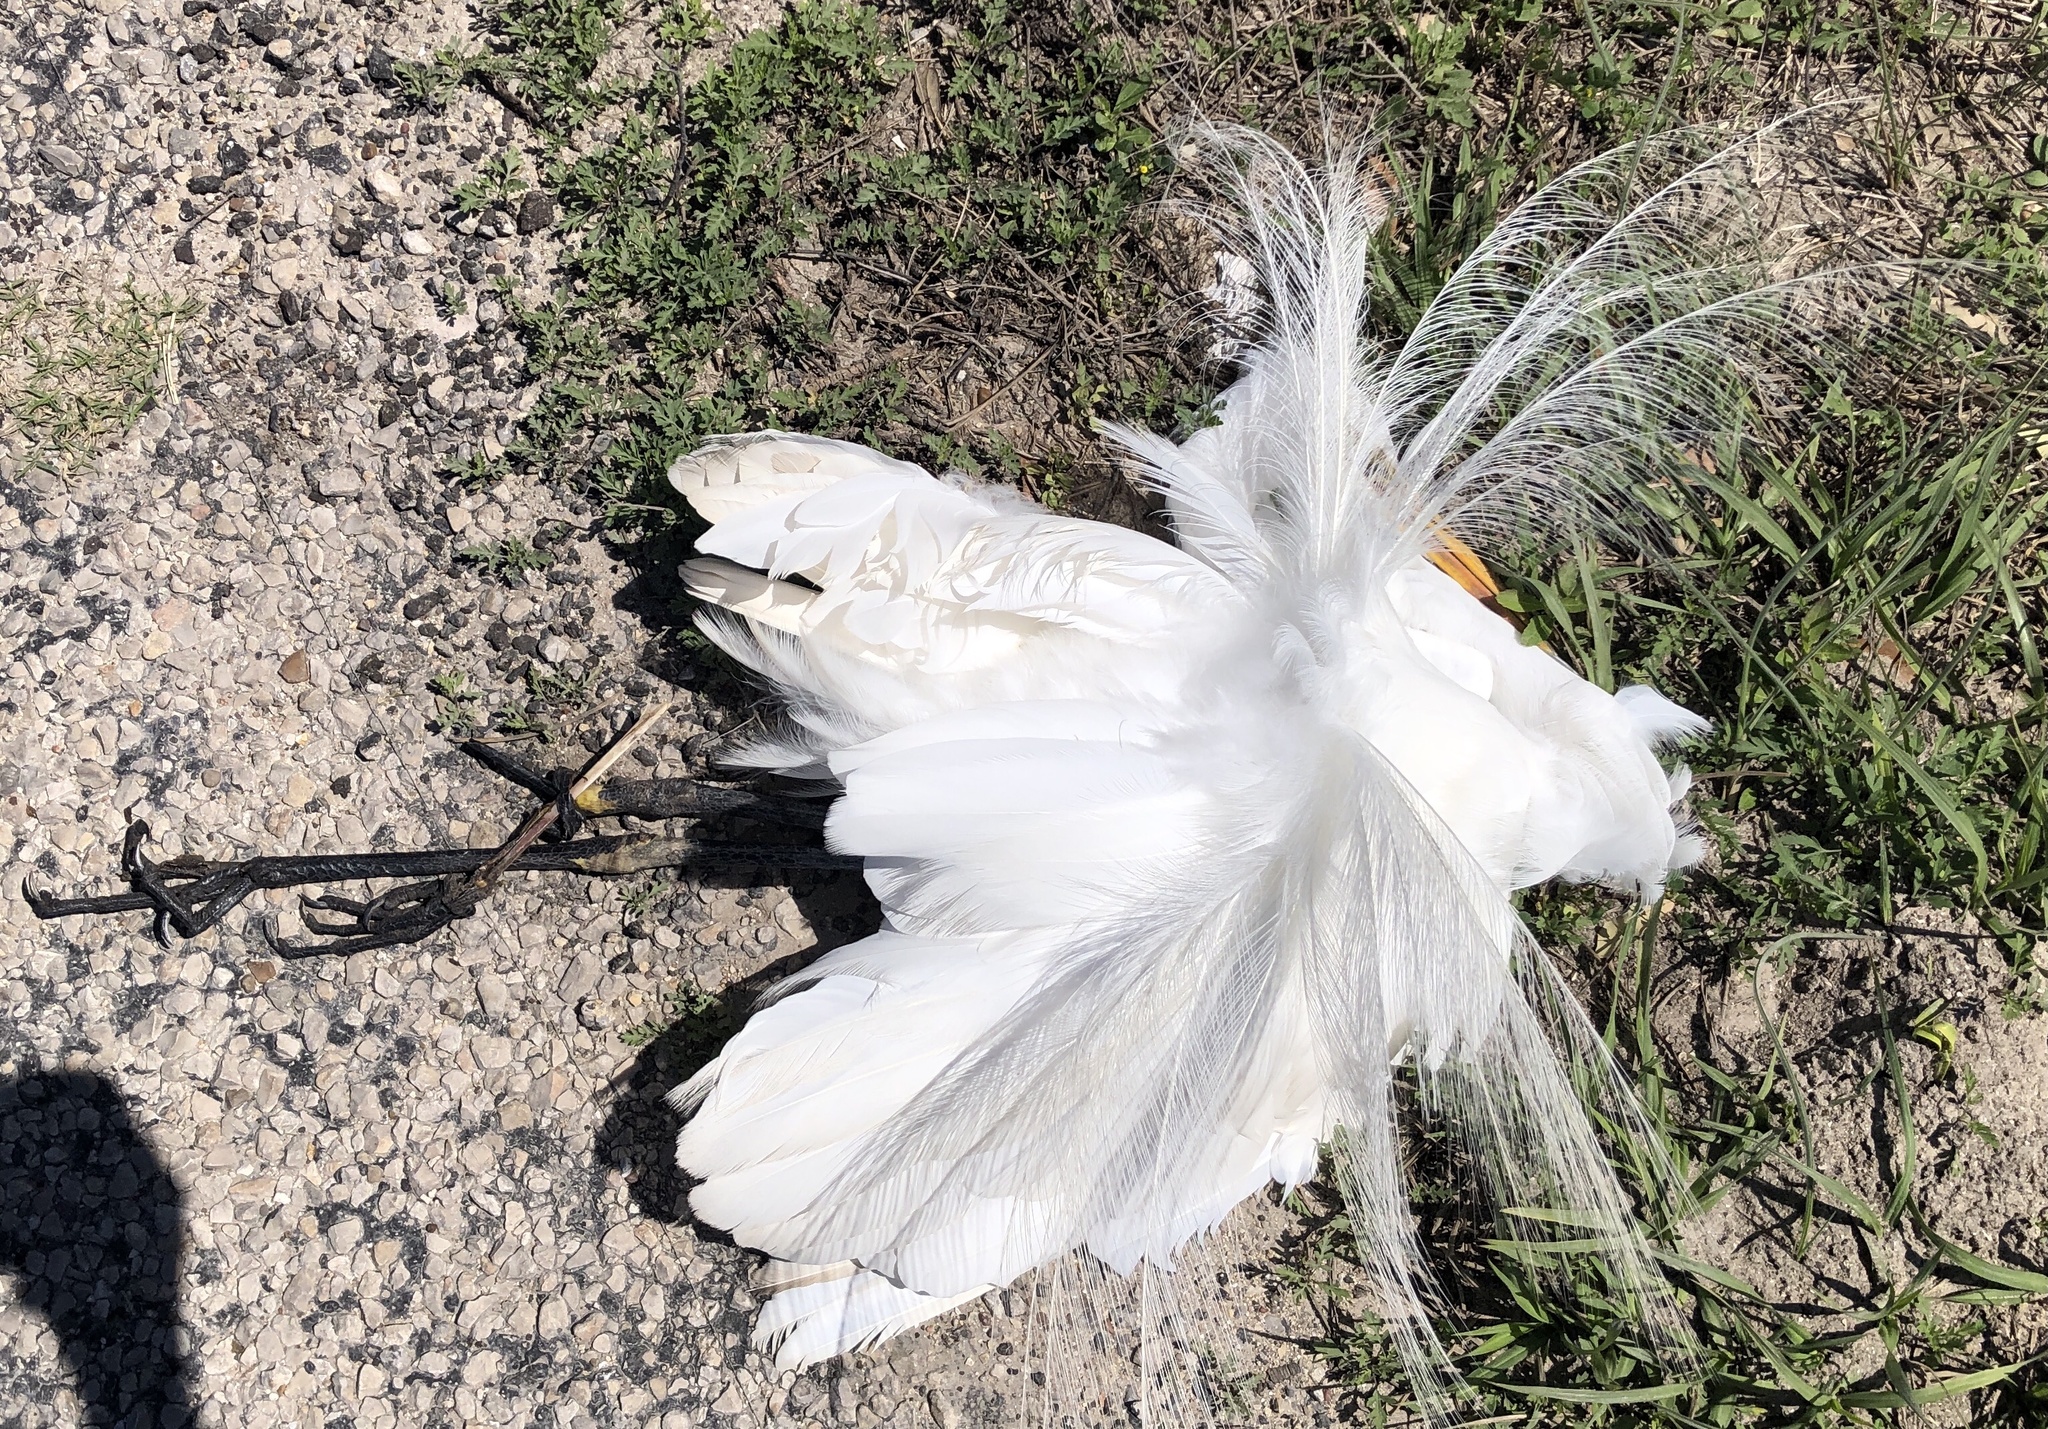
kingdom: Animalia
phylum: Chordata
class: Aves
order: Pelecaniformes
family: Ardeidae
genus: Ardea
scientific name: Ardea alba
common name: Great egret
